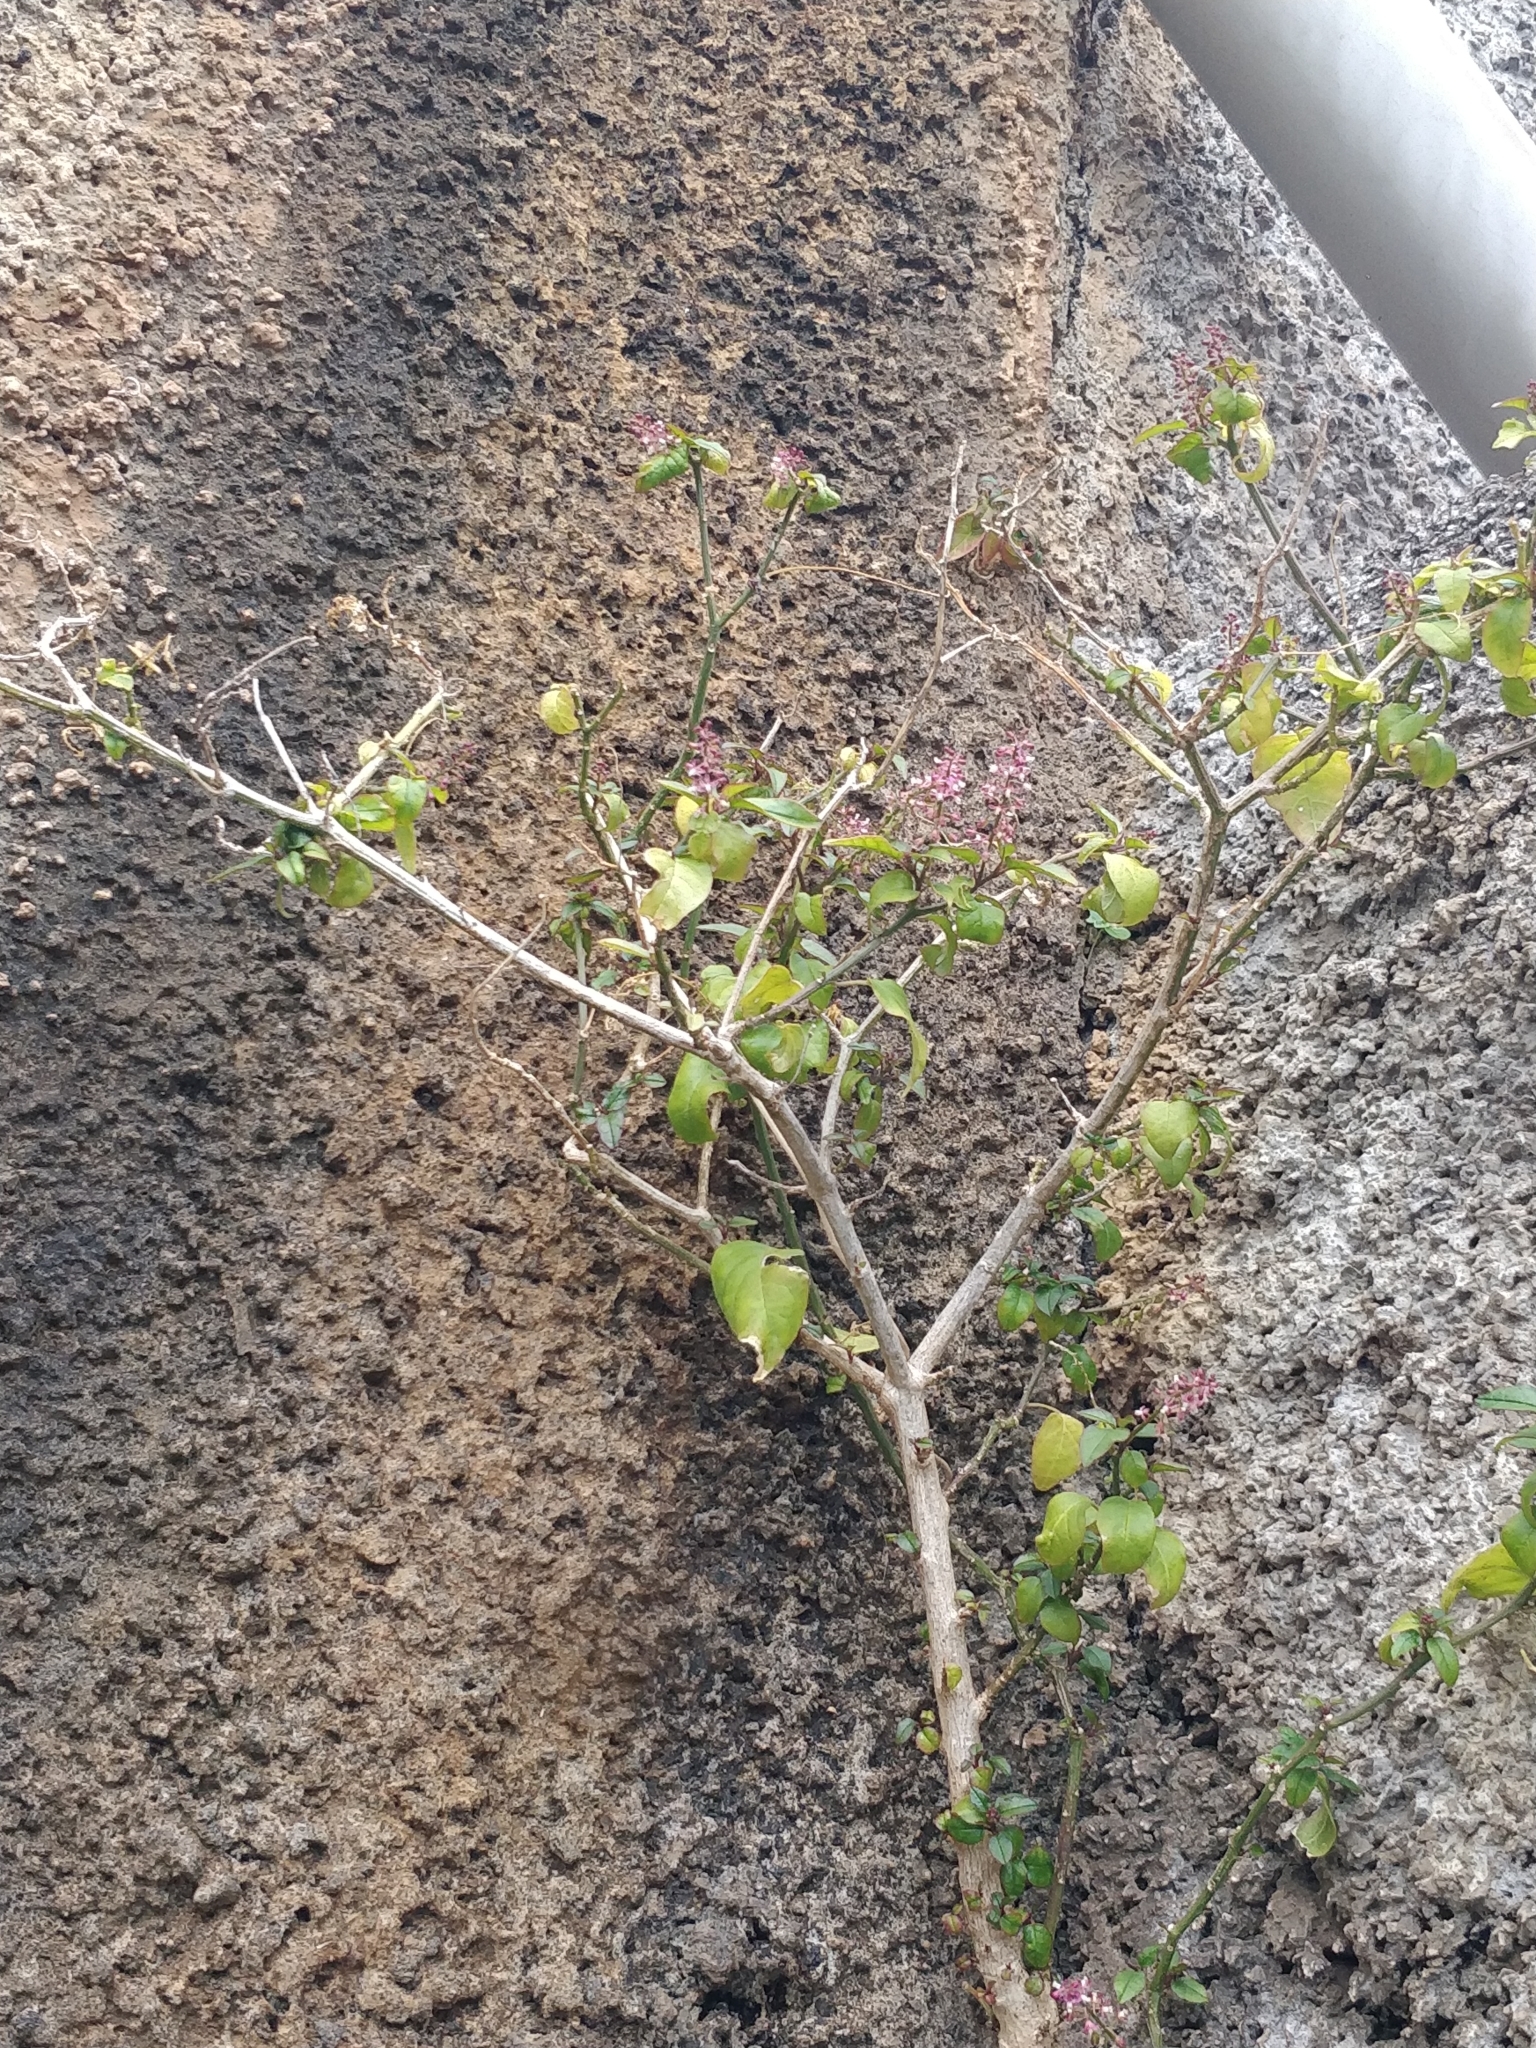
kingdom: Plantae
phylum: Tracheophyta
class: Magnoliopsida
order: Caryophyllales
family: Phytolaccaceae
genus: Rivina
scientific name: Rivina humilis
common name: Rougeplant
